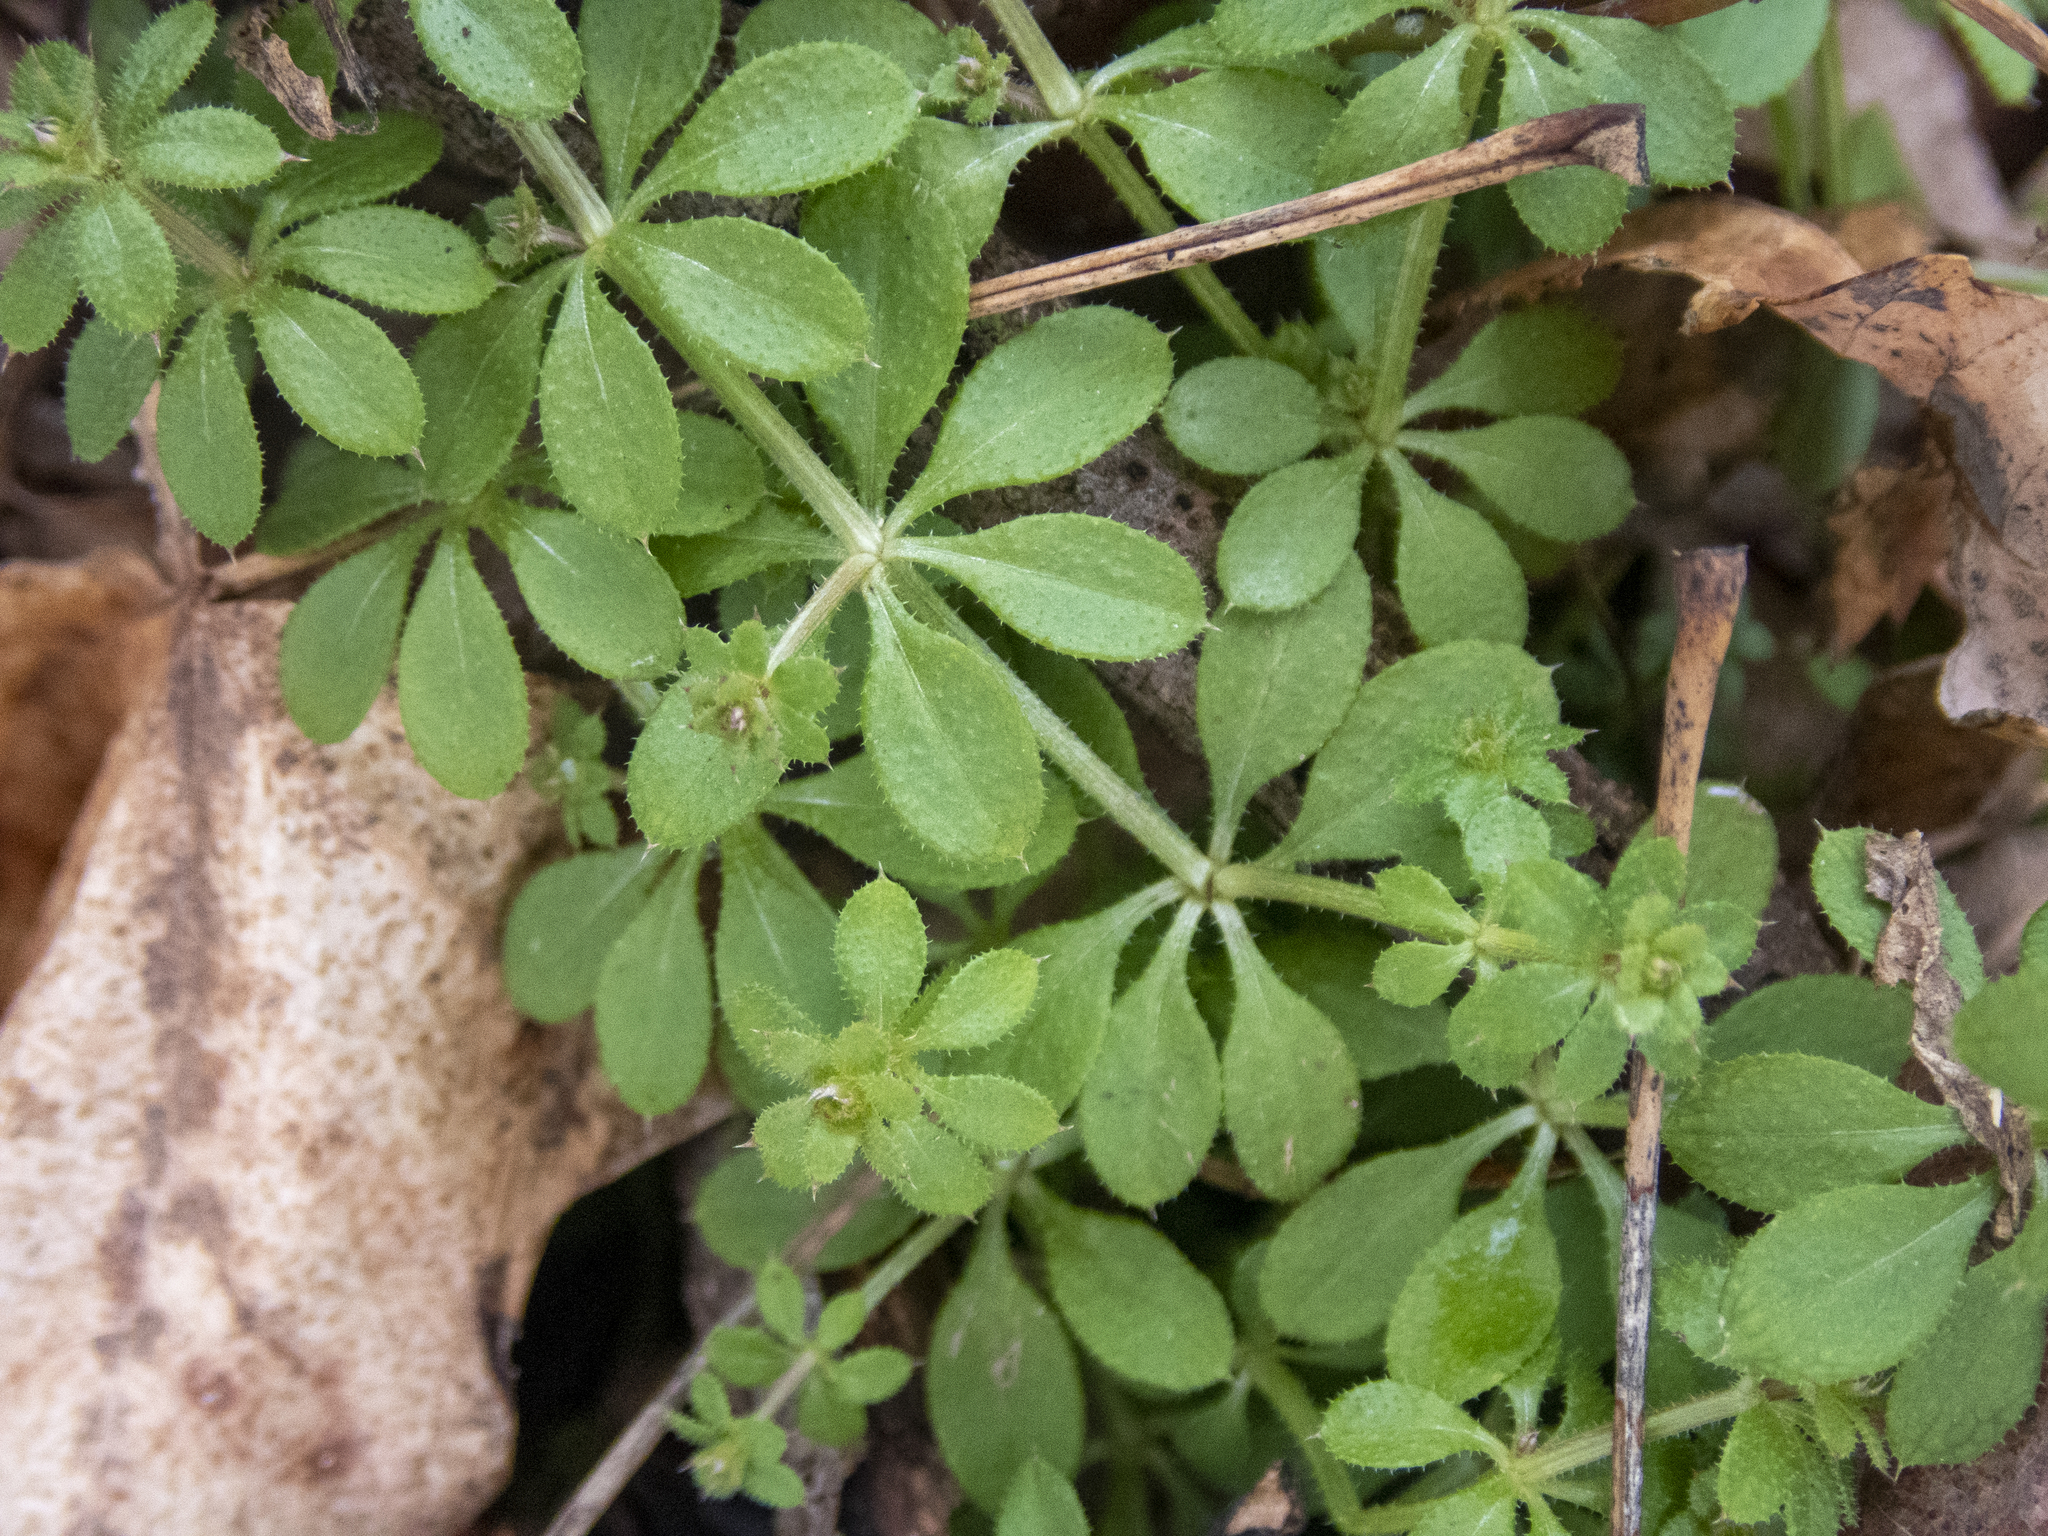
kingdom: Plantae
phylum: Tracheophyta
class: Magnoliopsida
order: Gentianales
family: Rubiaceae
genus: Galium
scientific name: Galium aparine
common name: Cleavers
